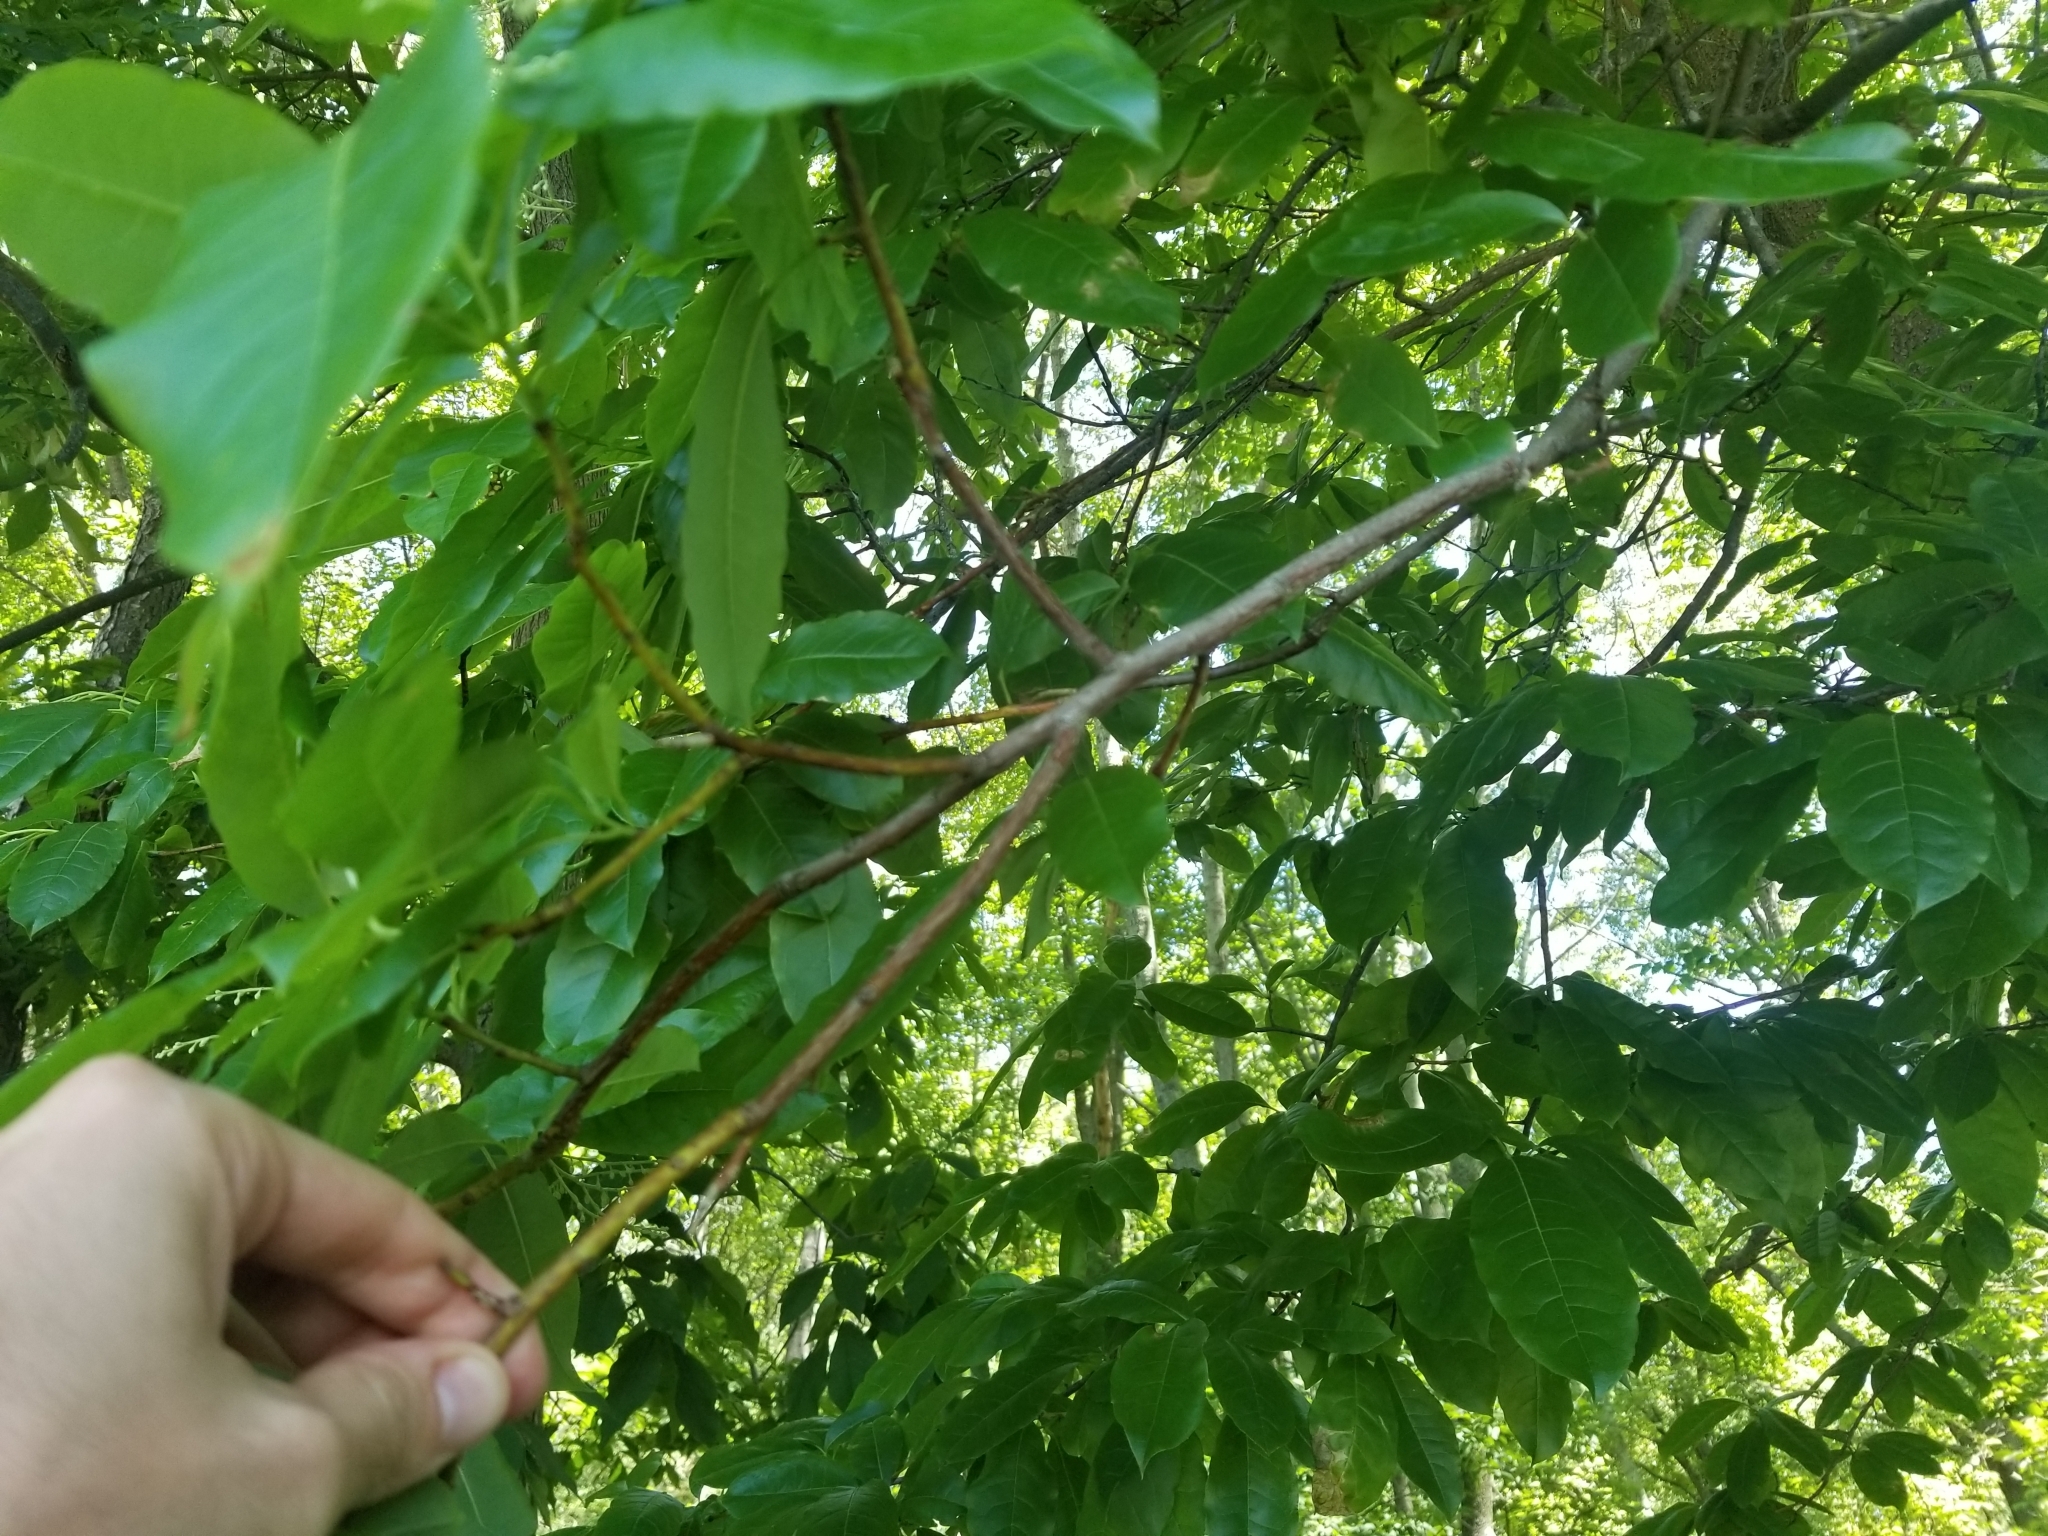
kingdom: Plantae
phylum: Tracheophyta
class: Magnoliopsida
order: Ericales
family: Ericaceae
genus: Oxydendrum
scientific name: Oxydendrum arboreum
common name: Sourwood
